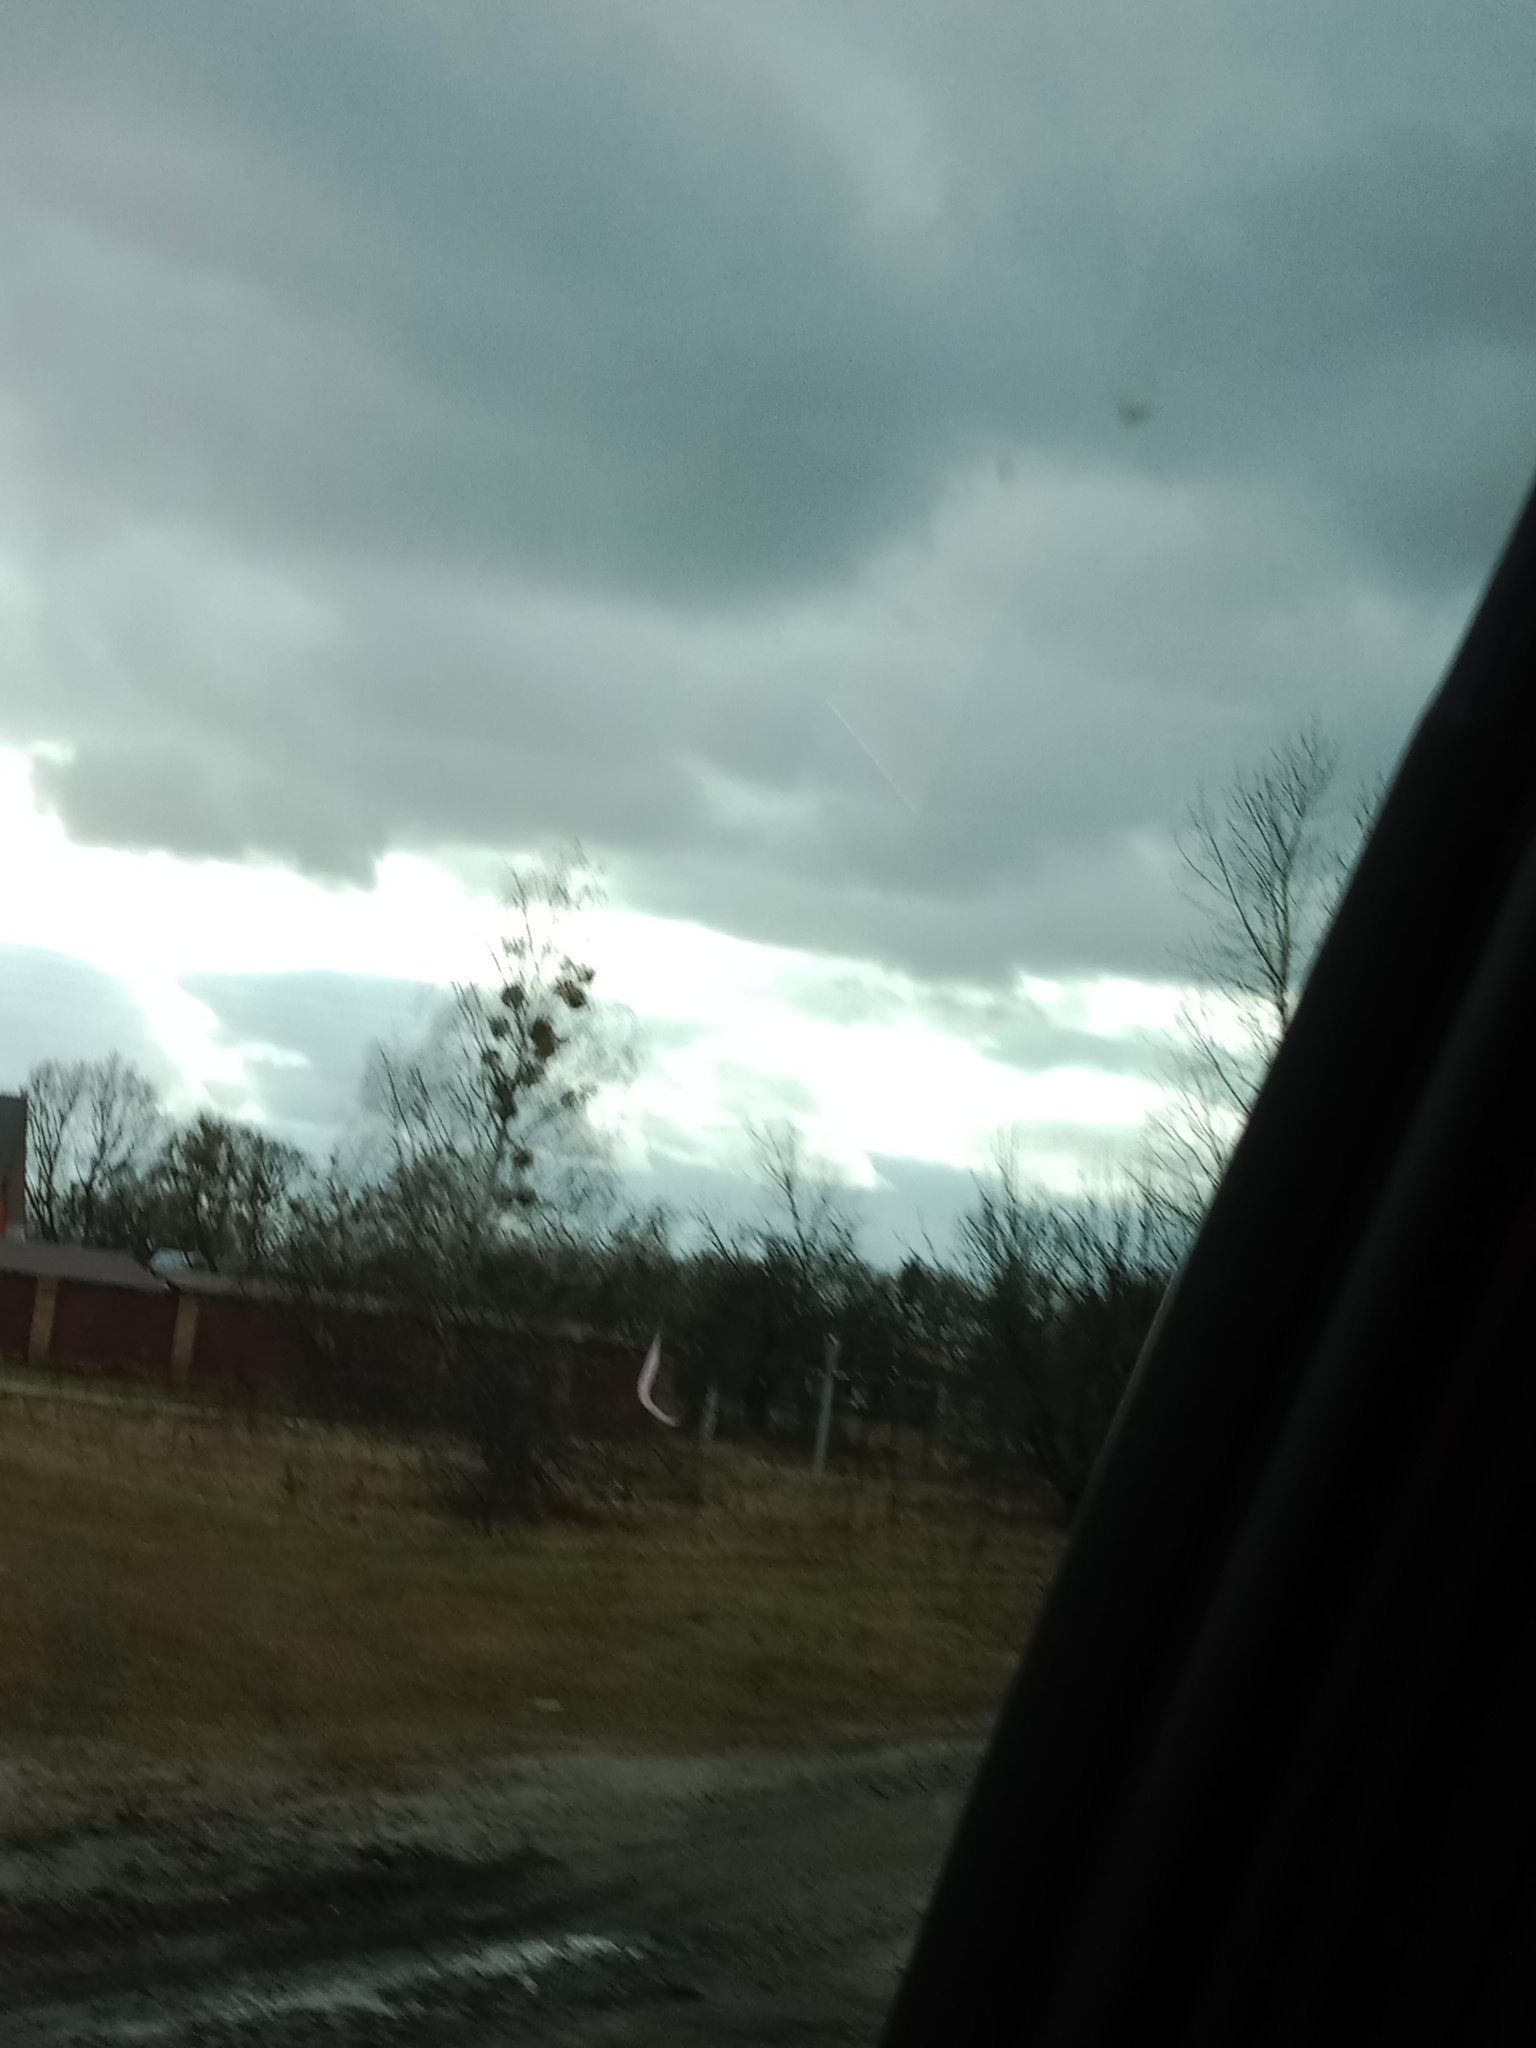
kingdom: Plantae
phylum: Tracheophyta
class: Magnoliopsida
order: Santalales
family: Viscaceae
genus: Viscum
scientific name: Viscum album
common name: Mistletoe
